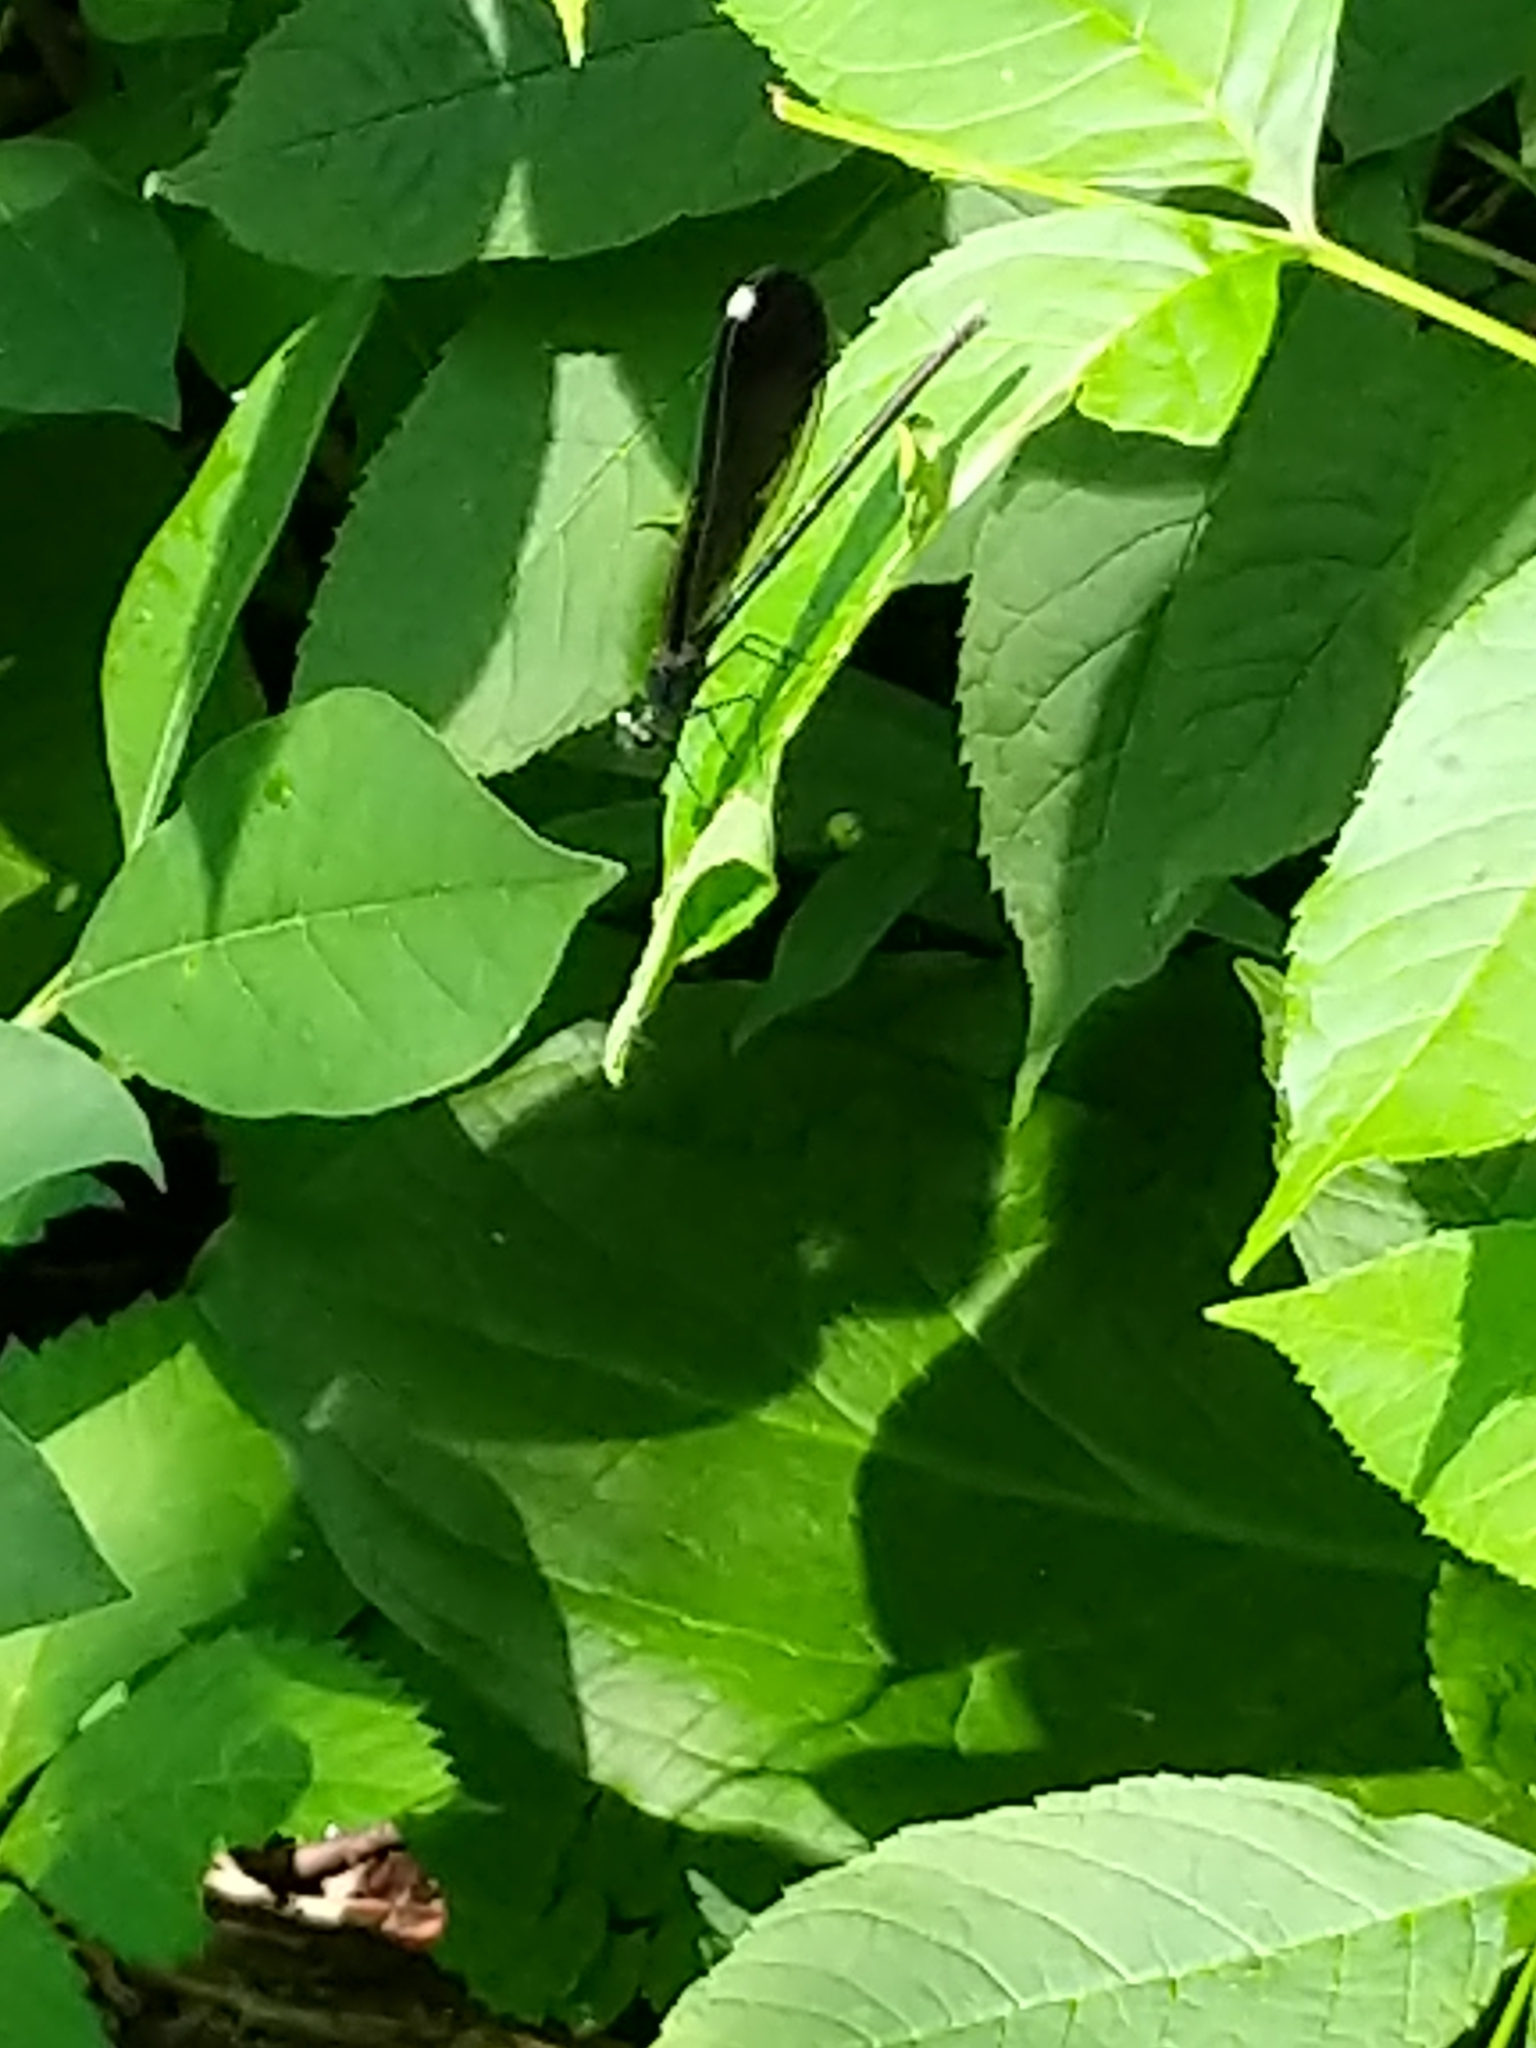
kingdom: Animalia
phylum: Arthropoda
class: Insecta
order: Odonata
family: Calopterygidae
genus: Calopteryx
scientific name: Calopteryx maculata
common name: Ebony jewelwing
